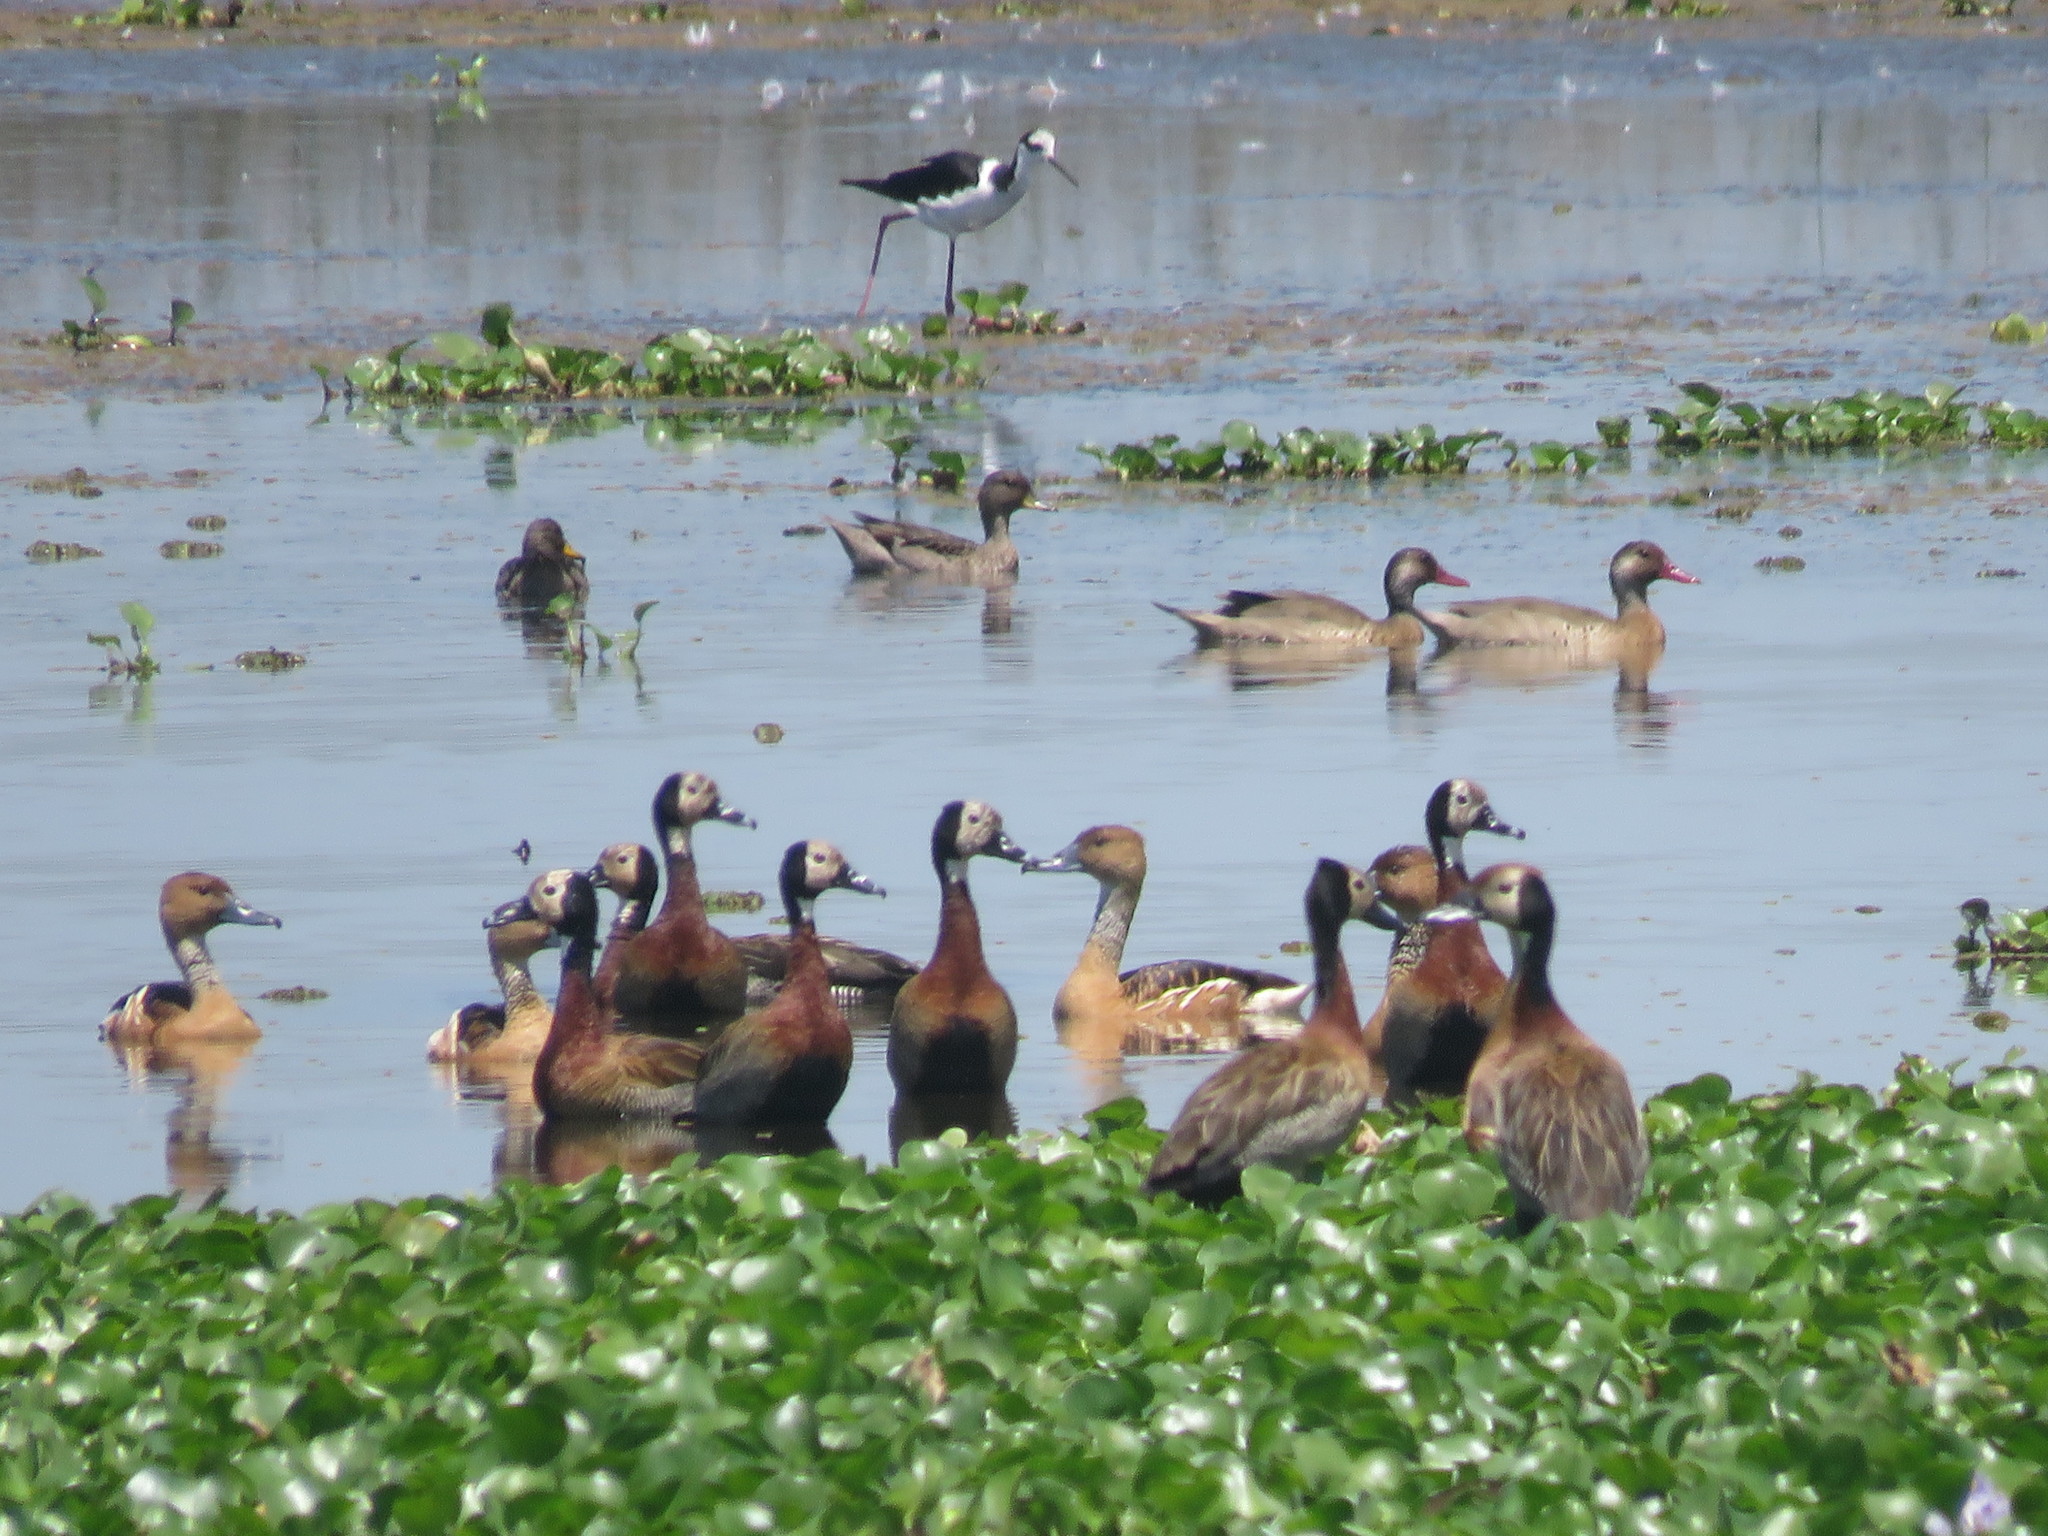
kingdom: Animalia
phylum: Chordata
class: Aves
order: Anseriformes
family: Anatidae
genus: Dendrocygna
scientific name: Dendrocygna viduata
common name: White-faced whistling duck
